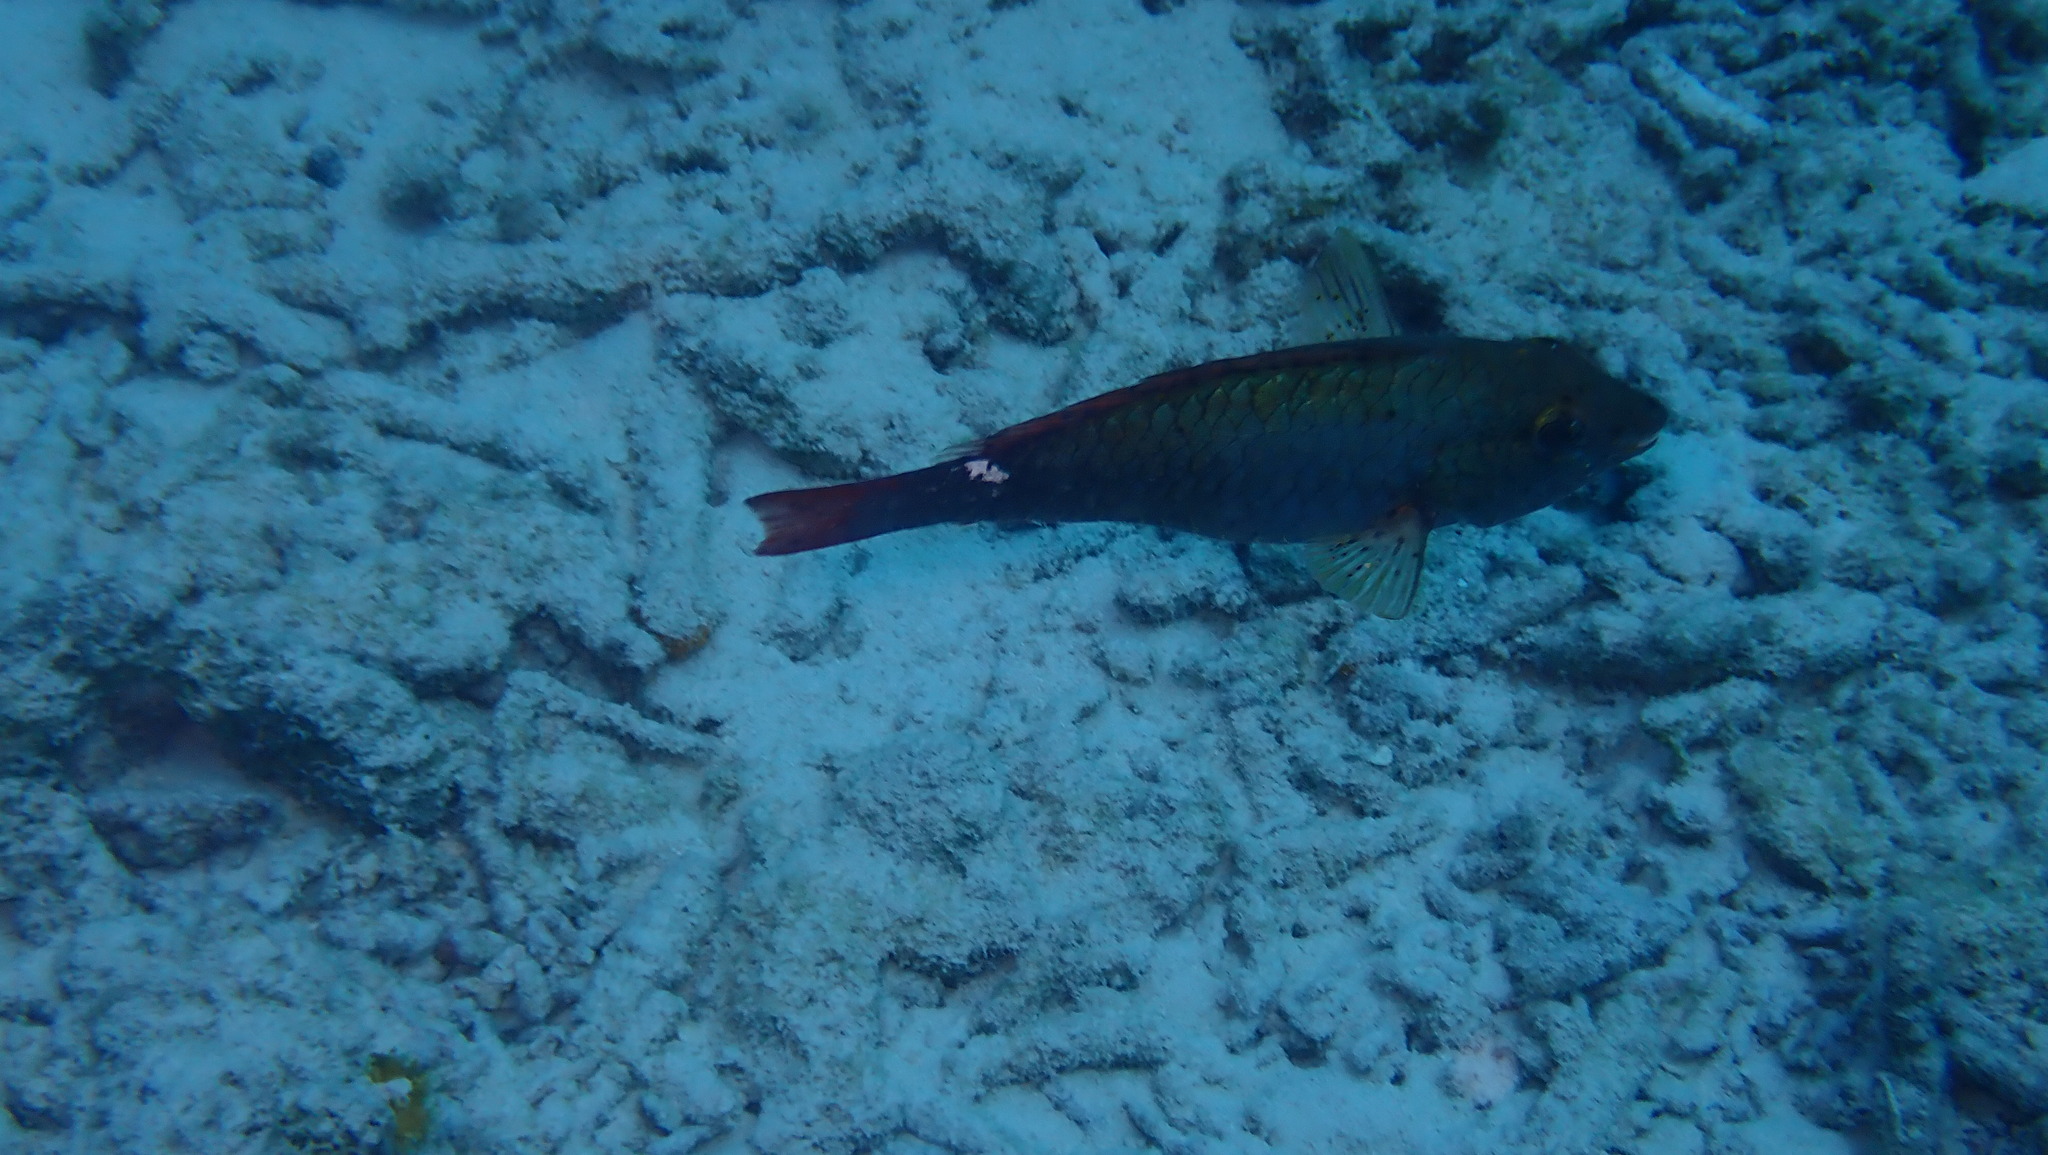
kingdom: Animalia
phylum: Chordata
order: Perciformes
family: Scaridae
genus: Sparisoma
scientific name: Sparisoma aurofrenatum
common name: Redband parrotfish
